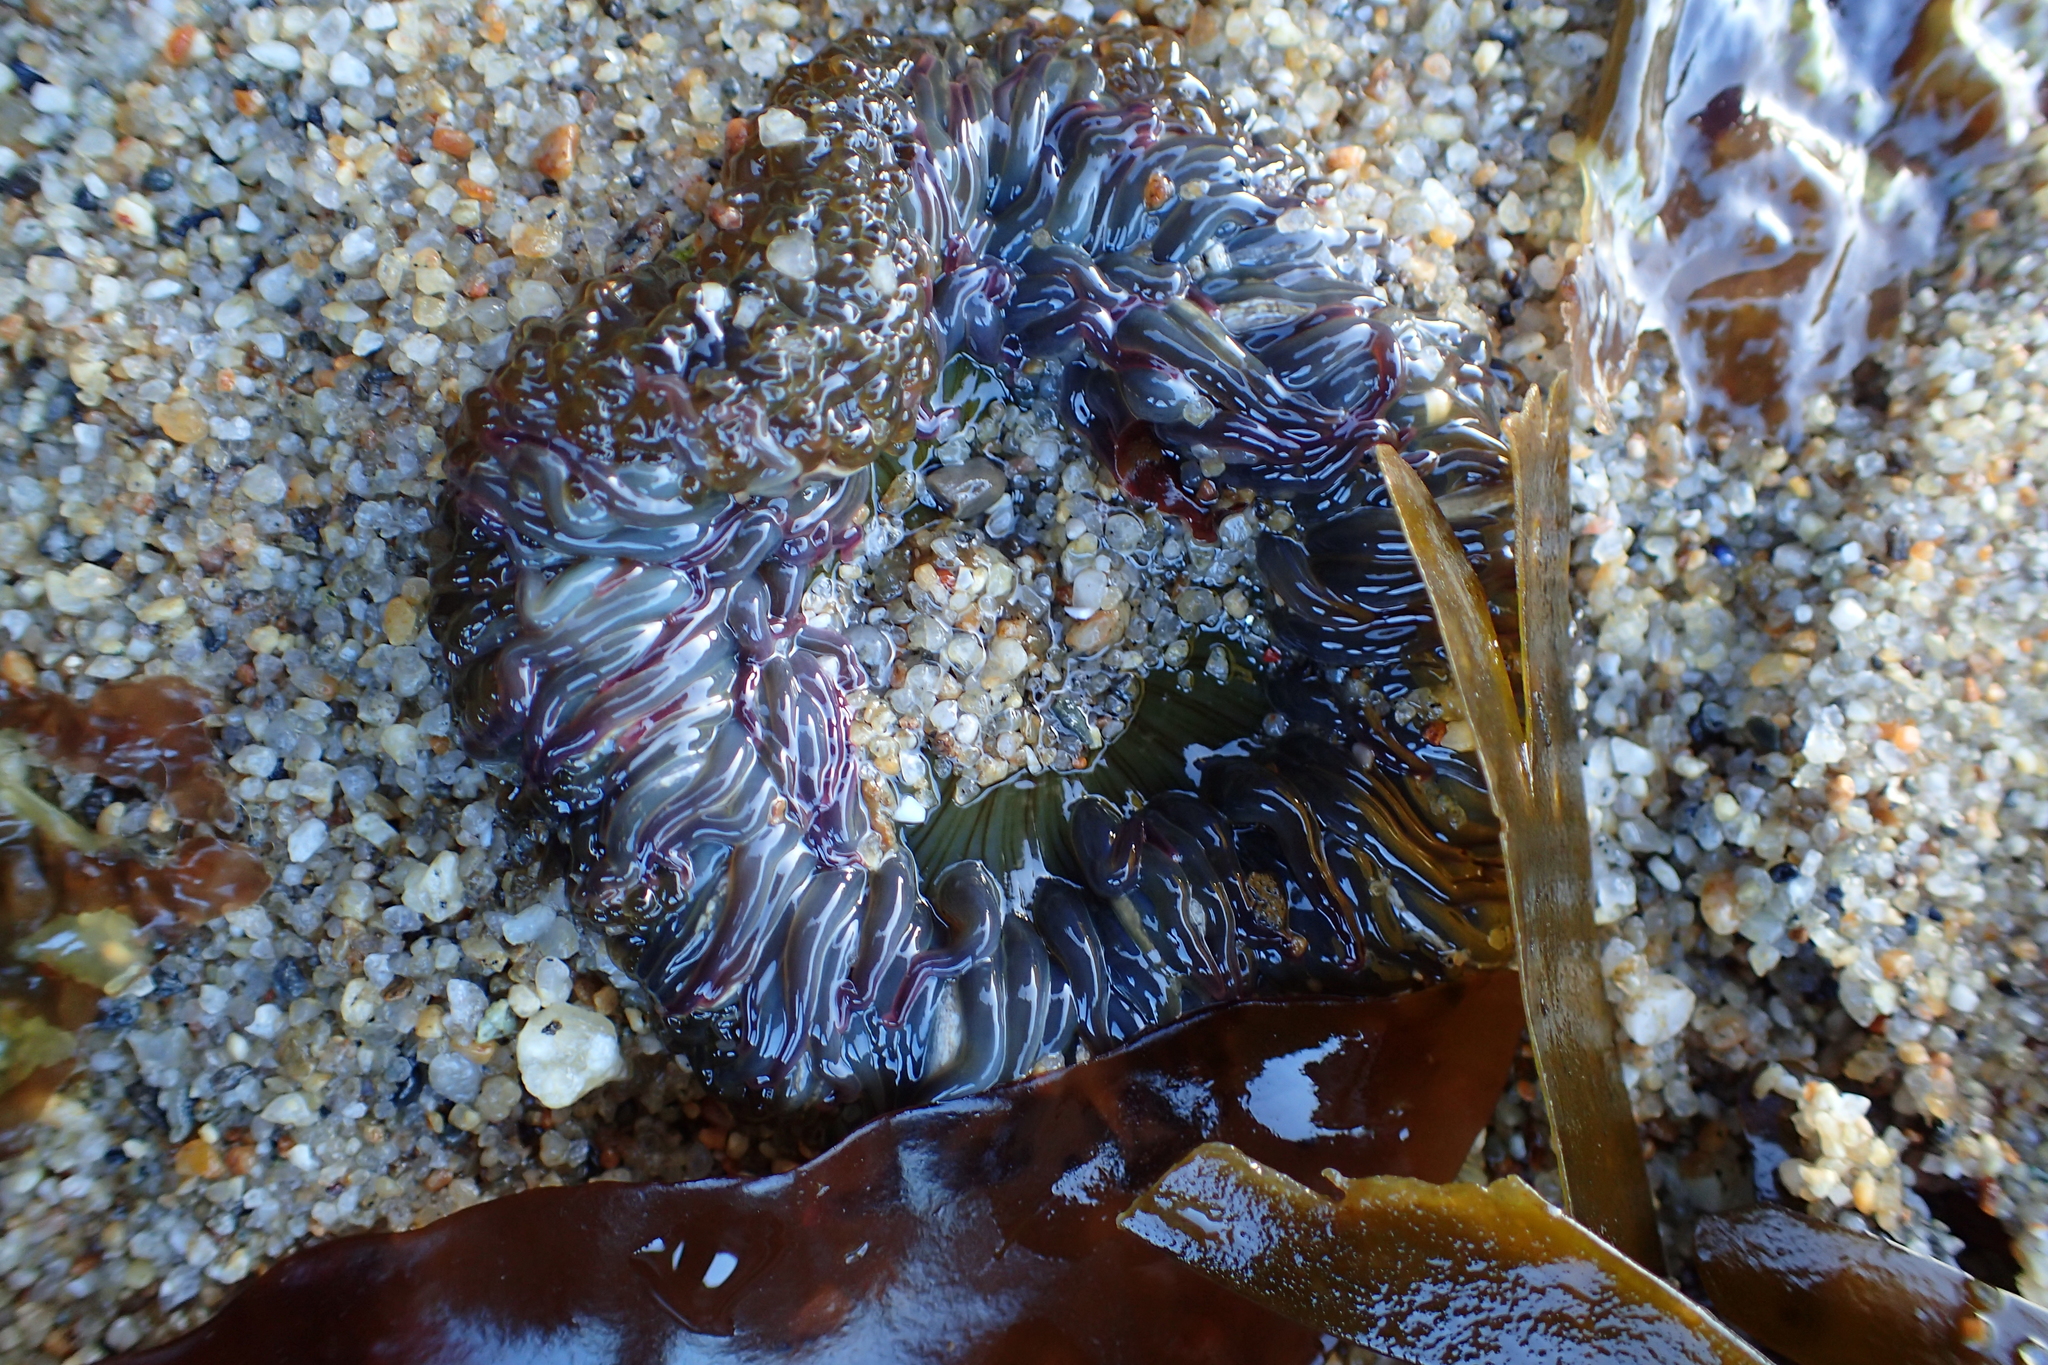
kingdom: Animalia
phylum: Cnidaria
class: Anthozoa
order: Actiniaria
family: Actiniidae
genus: Anthopleura
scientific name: Anthopleura sola
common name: Sun anemone
